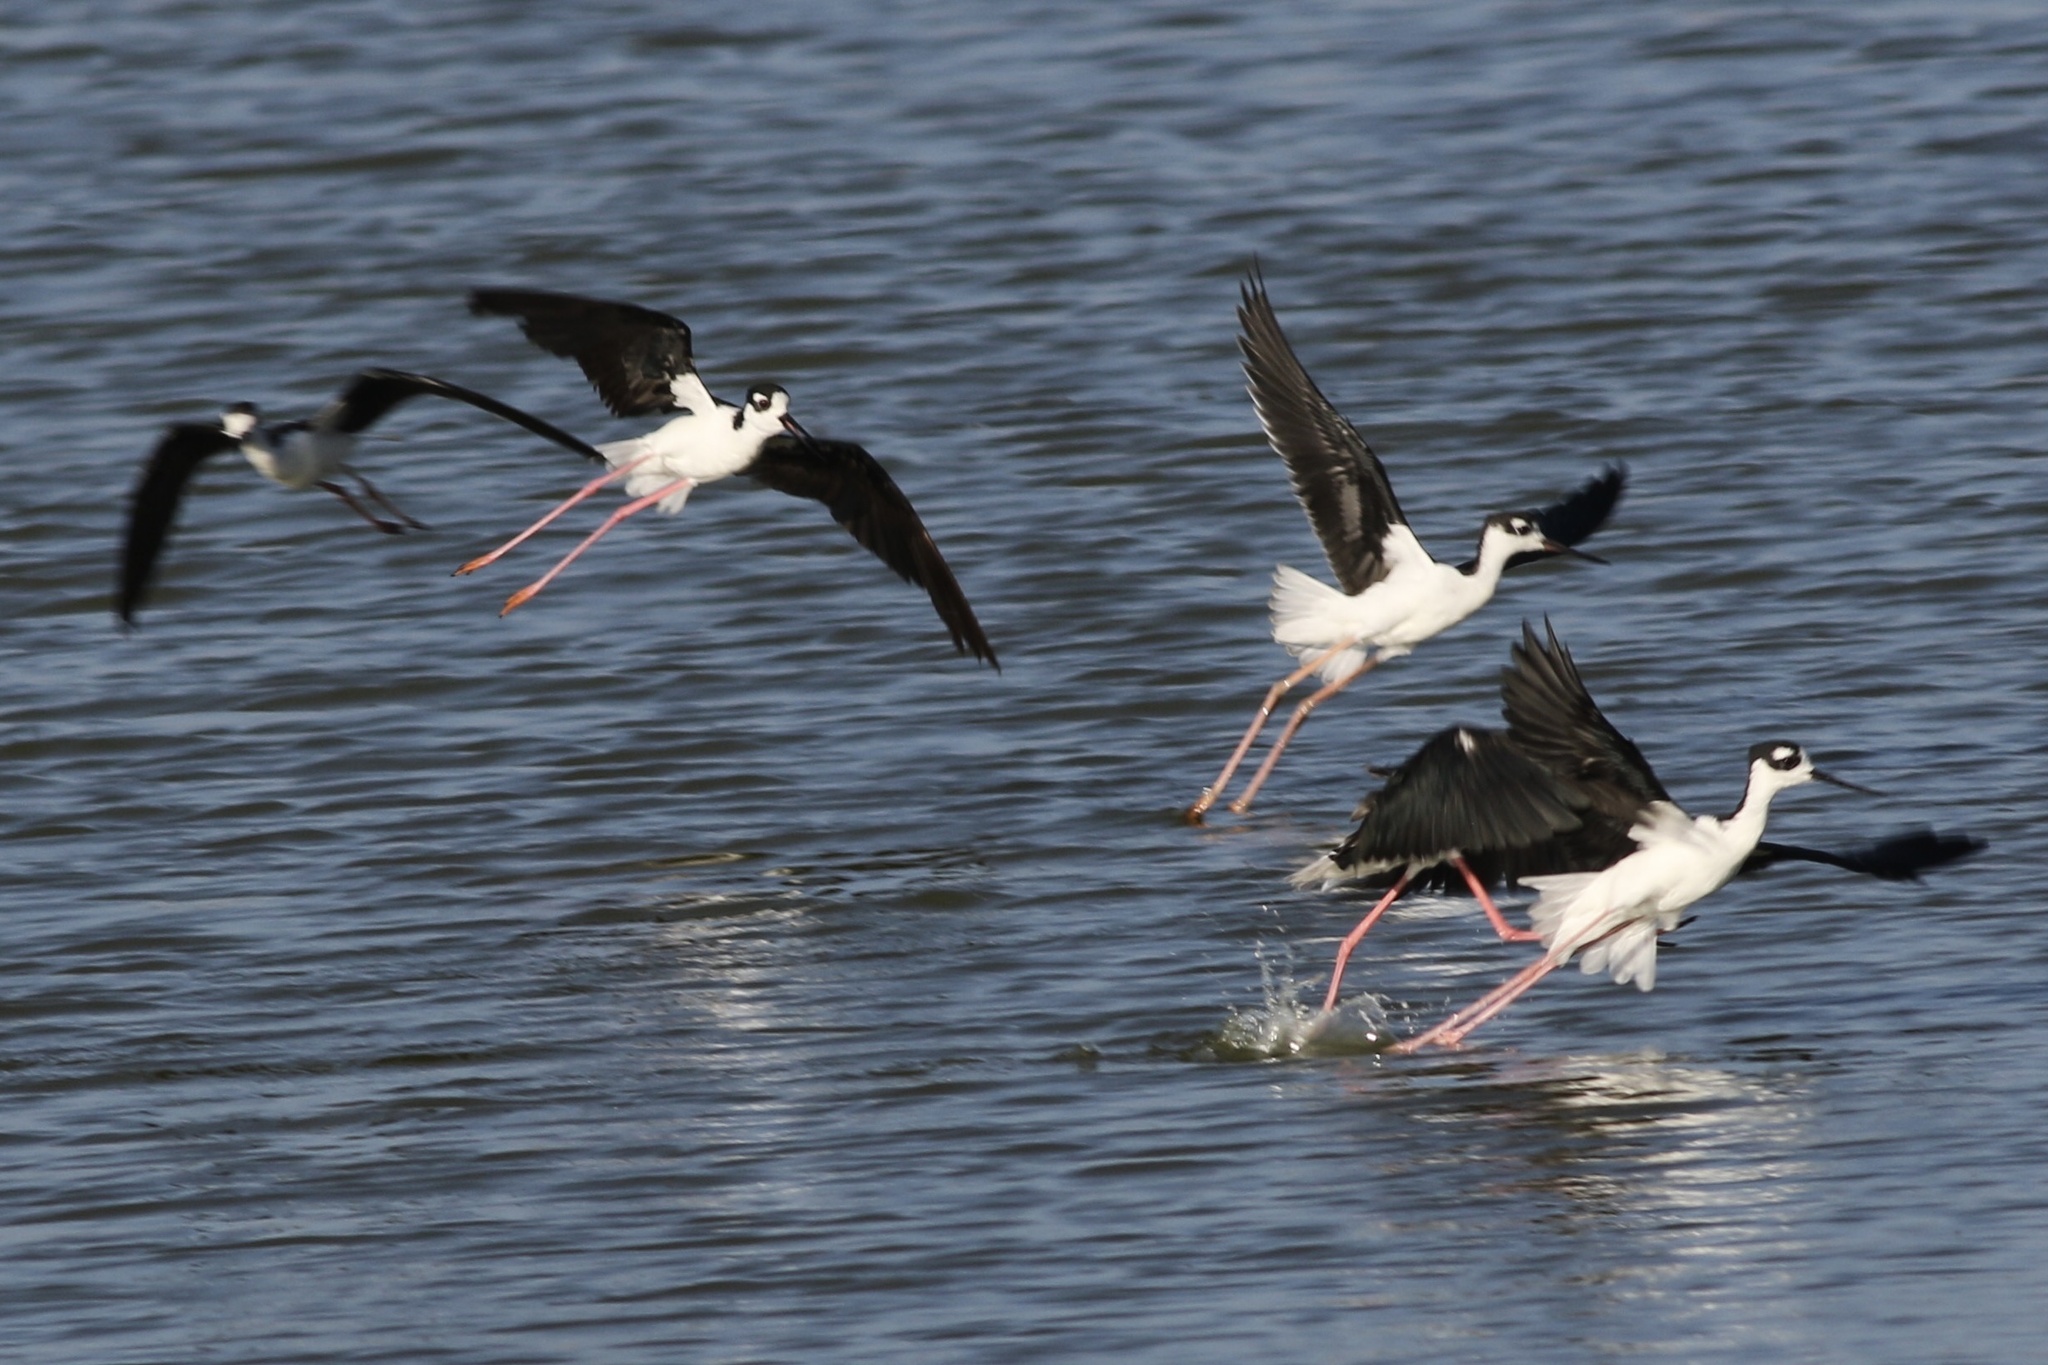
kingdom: Animalia
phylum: Chordata
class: Aves
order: Charadriiformes
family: Recurvirostridae
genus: Himantopus
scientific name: Himantopus mexicanus
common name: Black-necked stilt
